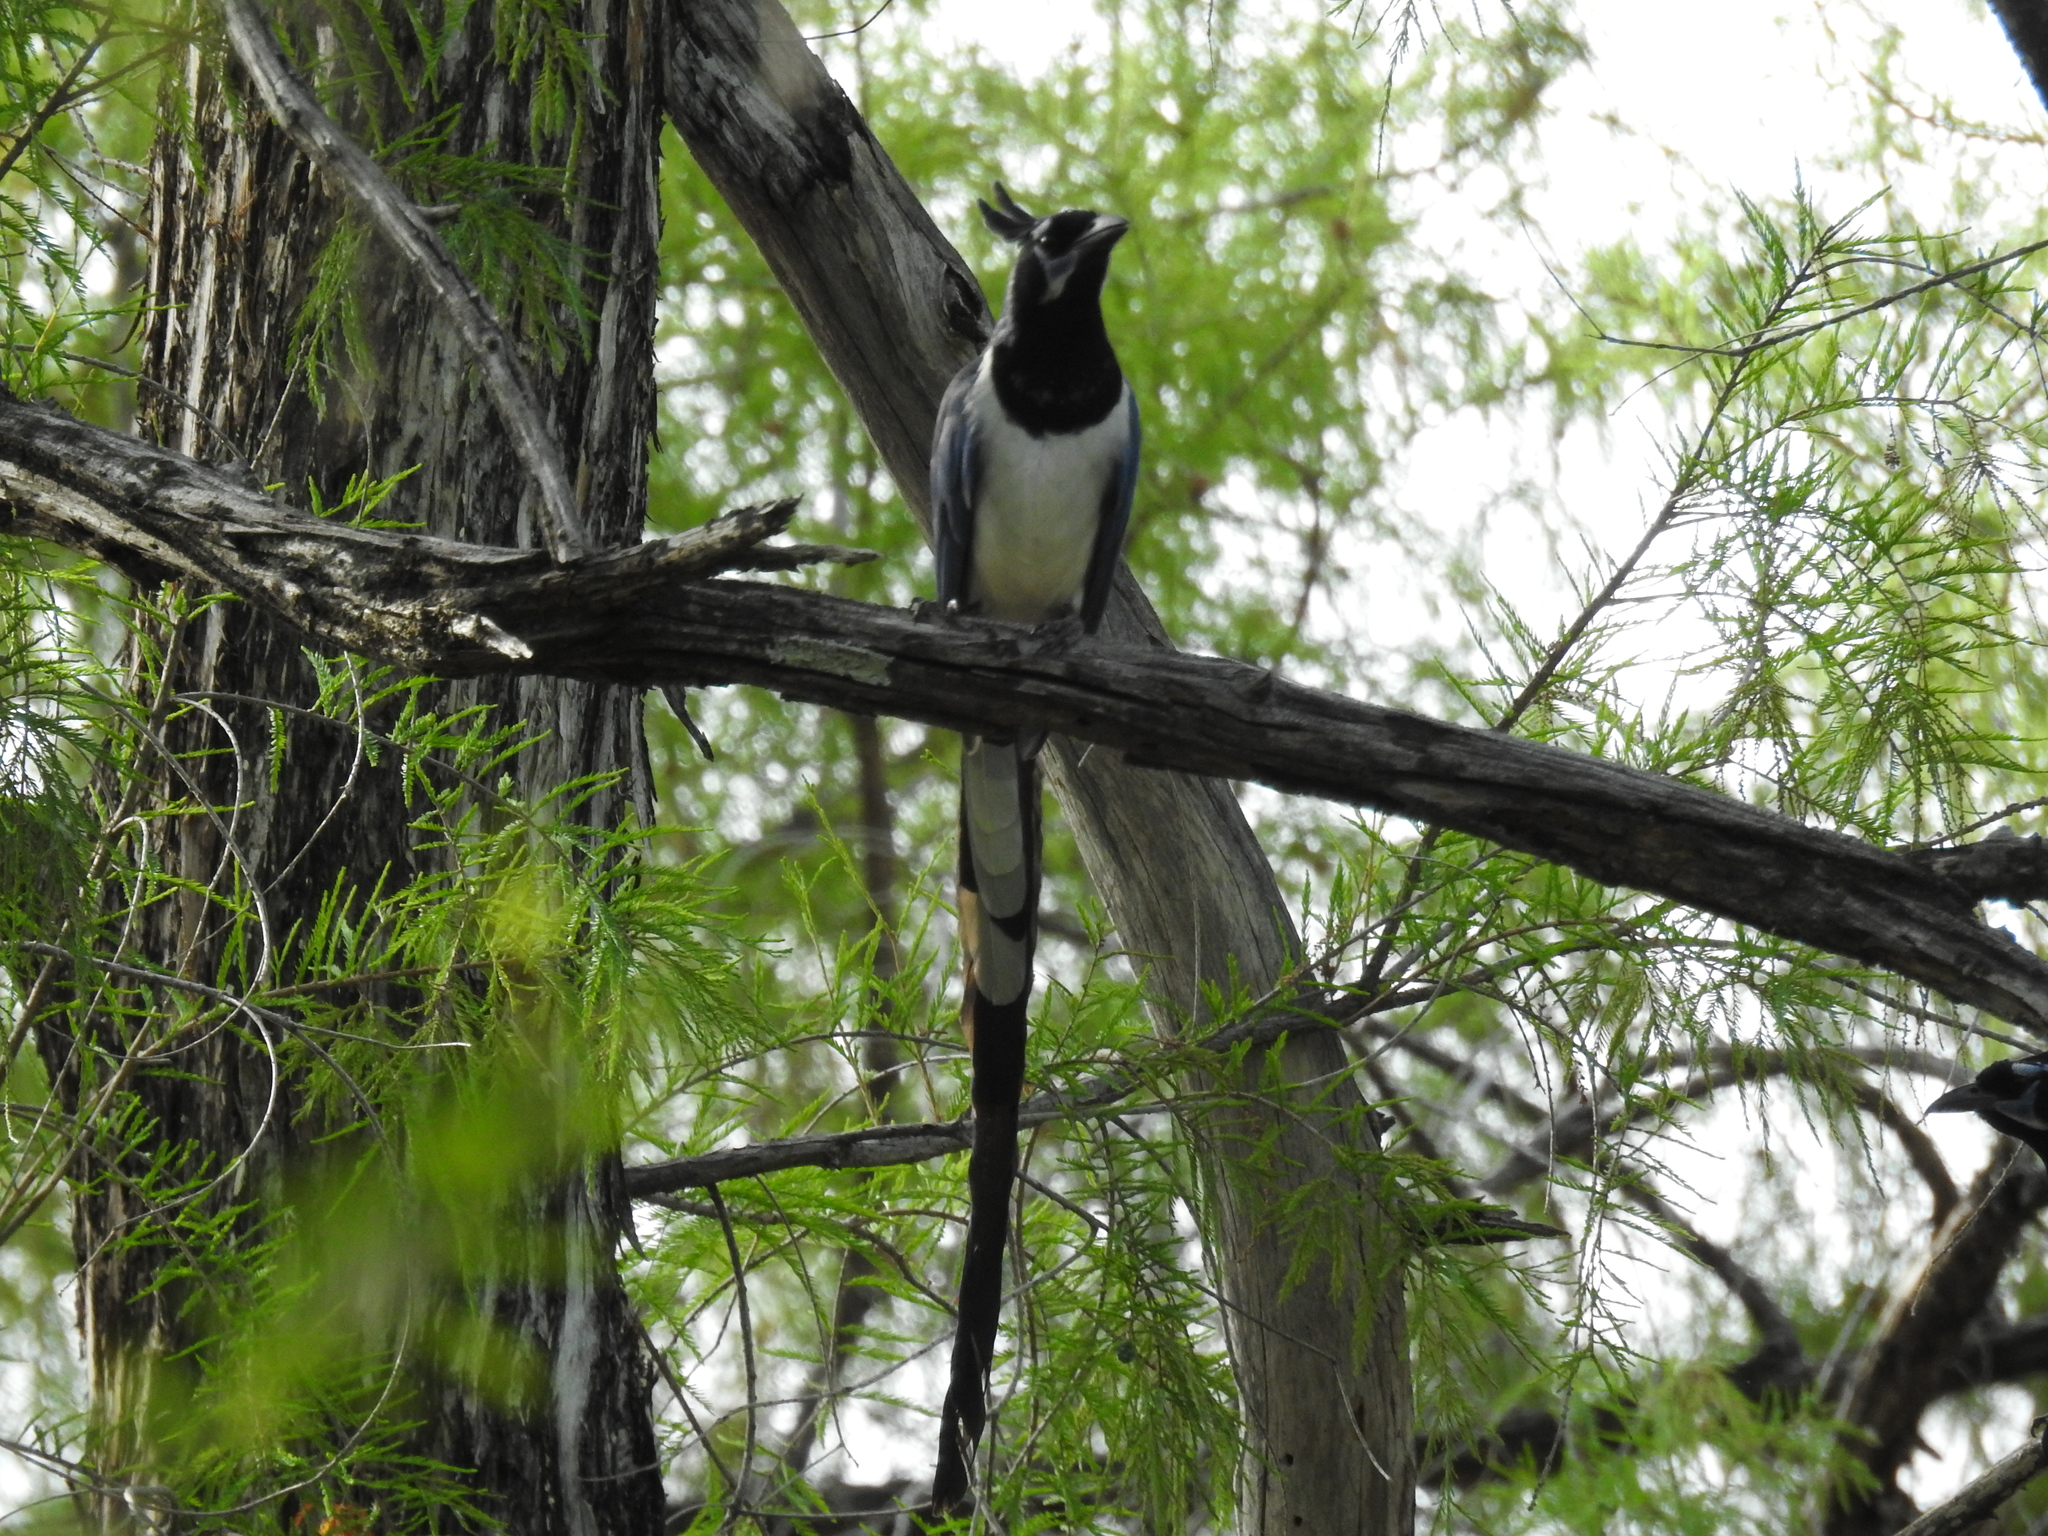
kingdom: Animalia
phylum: Chordata
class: Aves
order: Passeriformes
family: Corvidae
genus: Calocitta
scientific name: Calocitta colliei
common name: Black-throated magpie-jay
